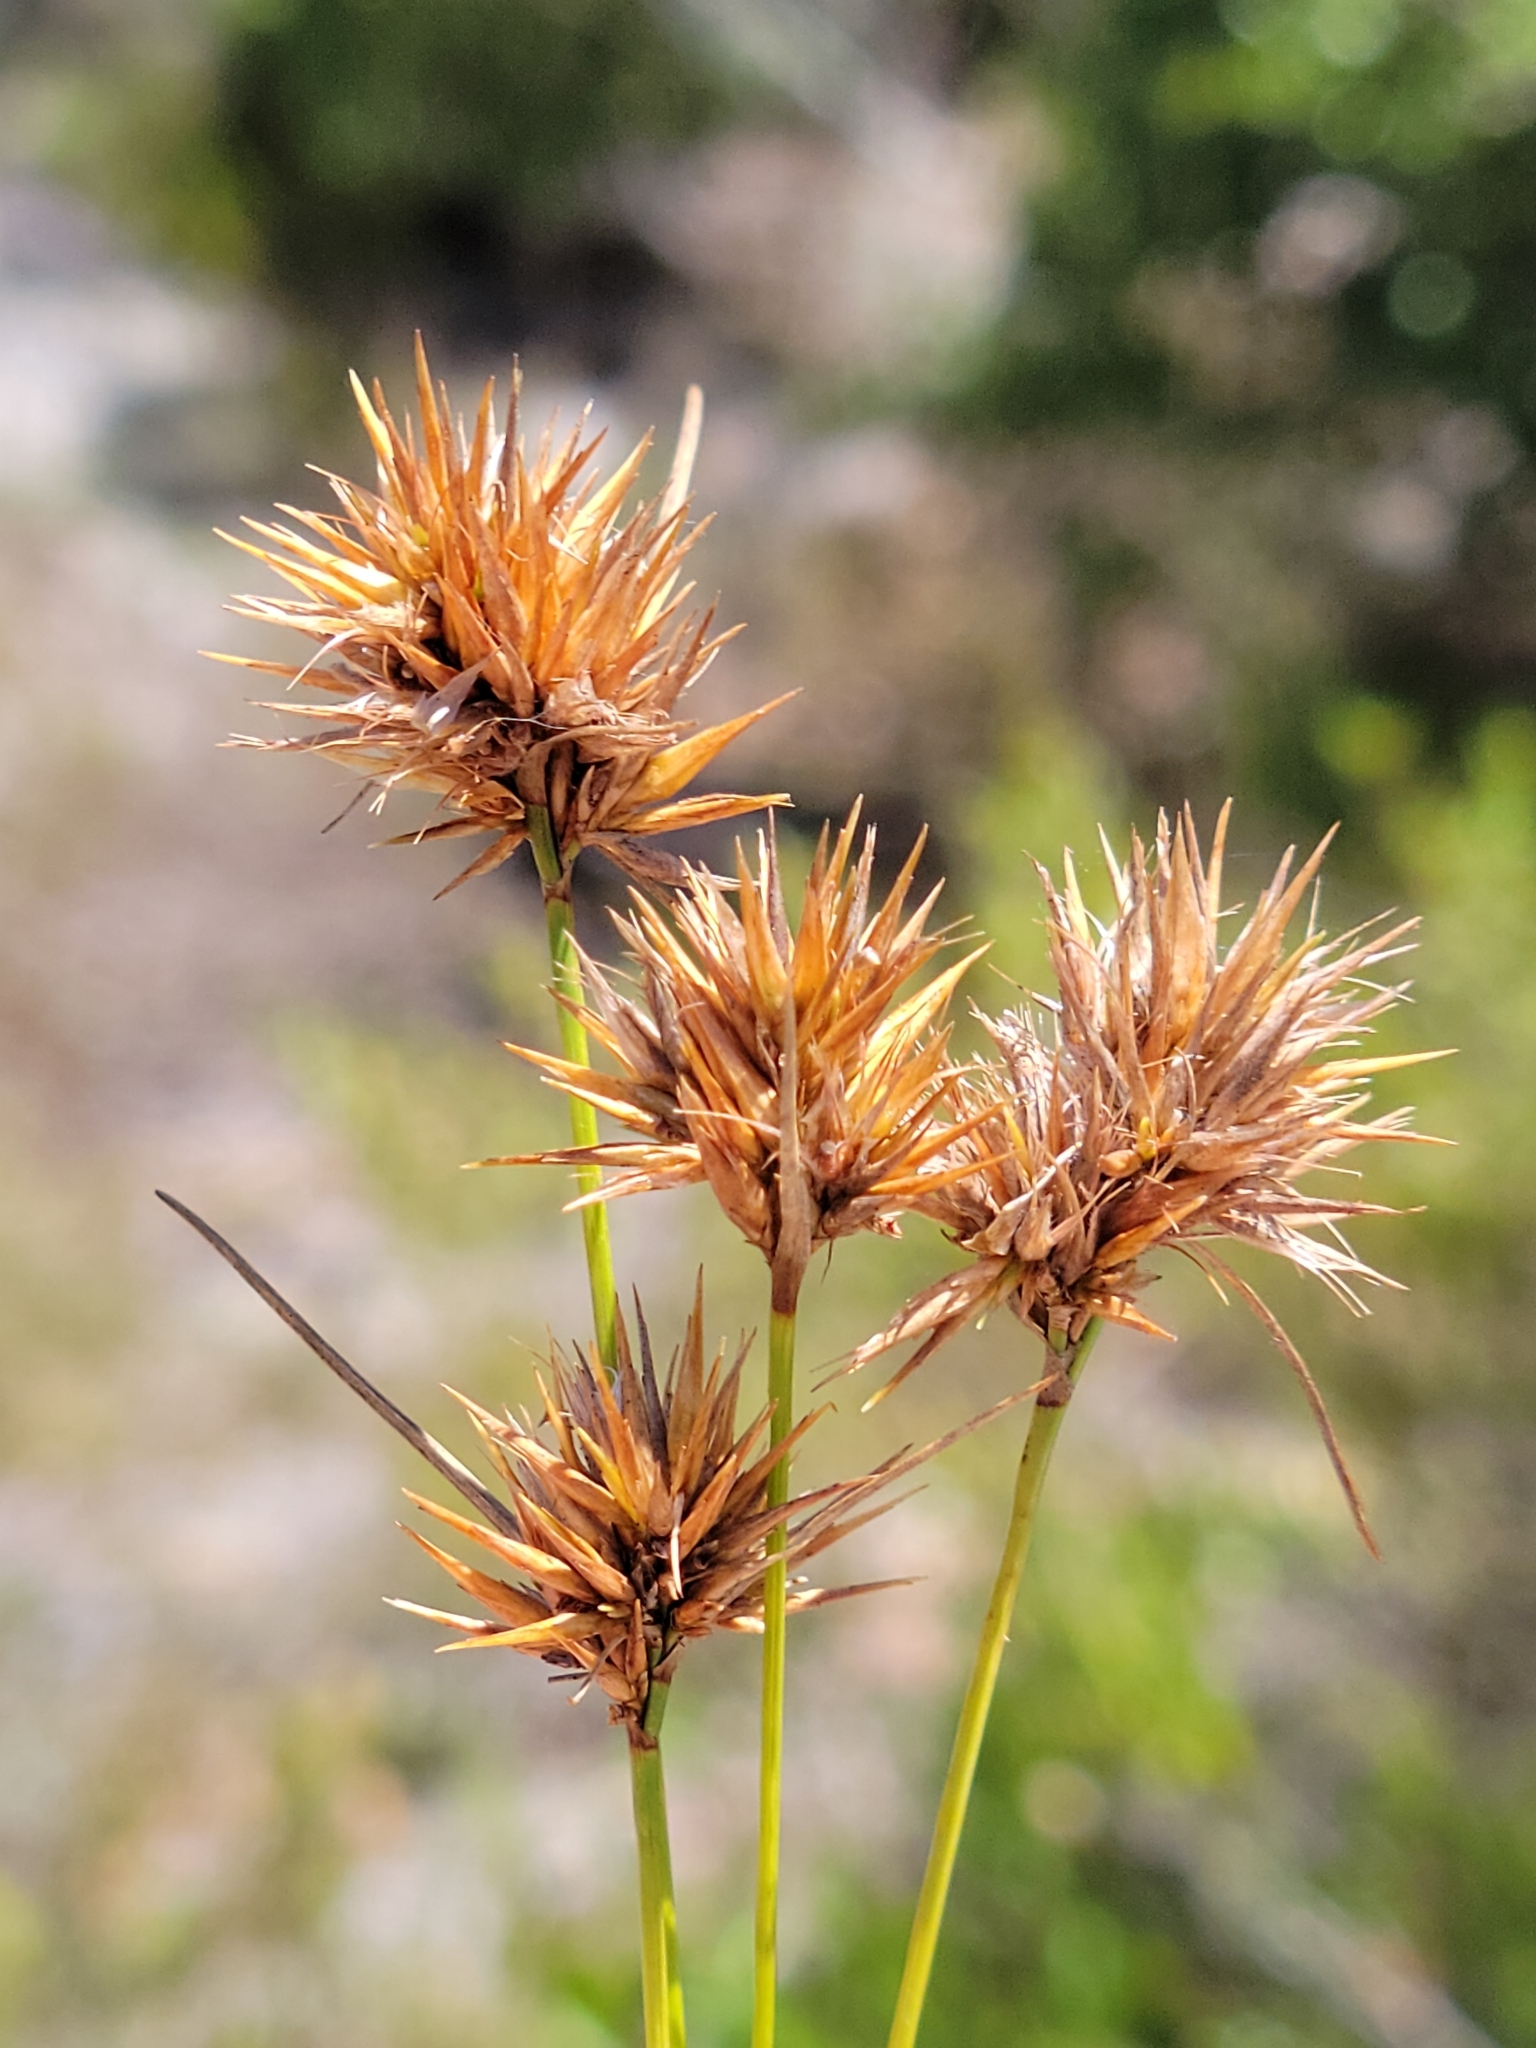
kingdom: Plantae
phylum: Tracheophyta
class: Liliopsida
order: Poales
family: Cyperaceae
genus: Rhynchospora
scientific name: Rhynchospora megaplumosa
